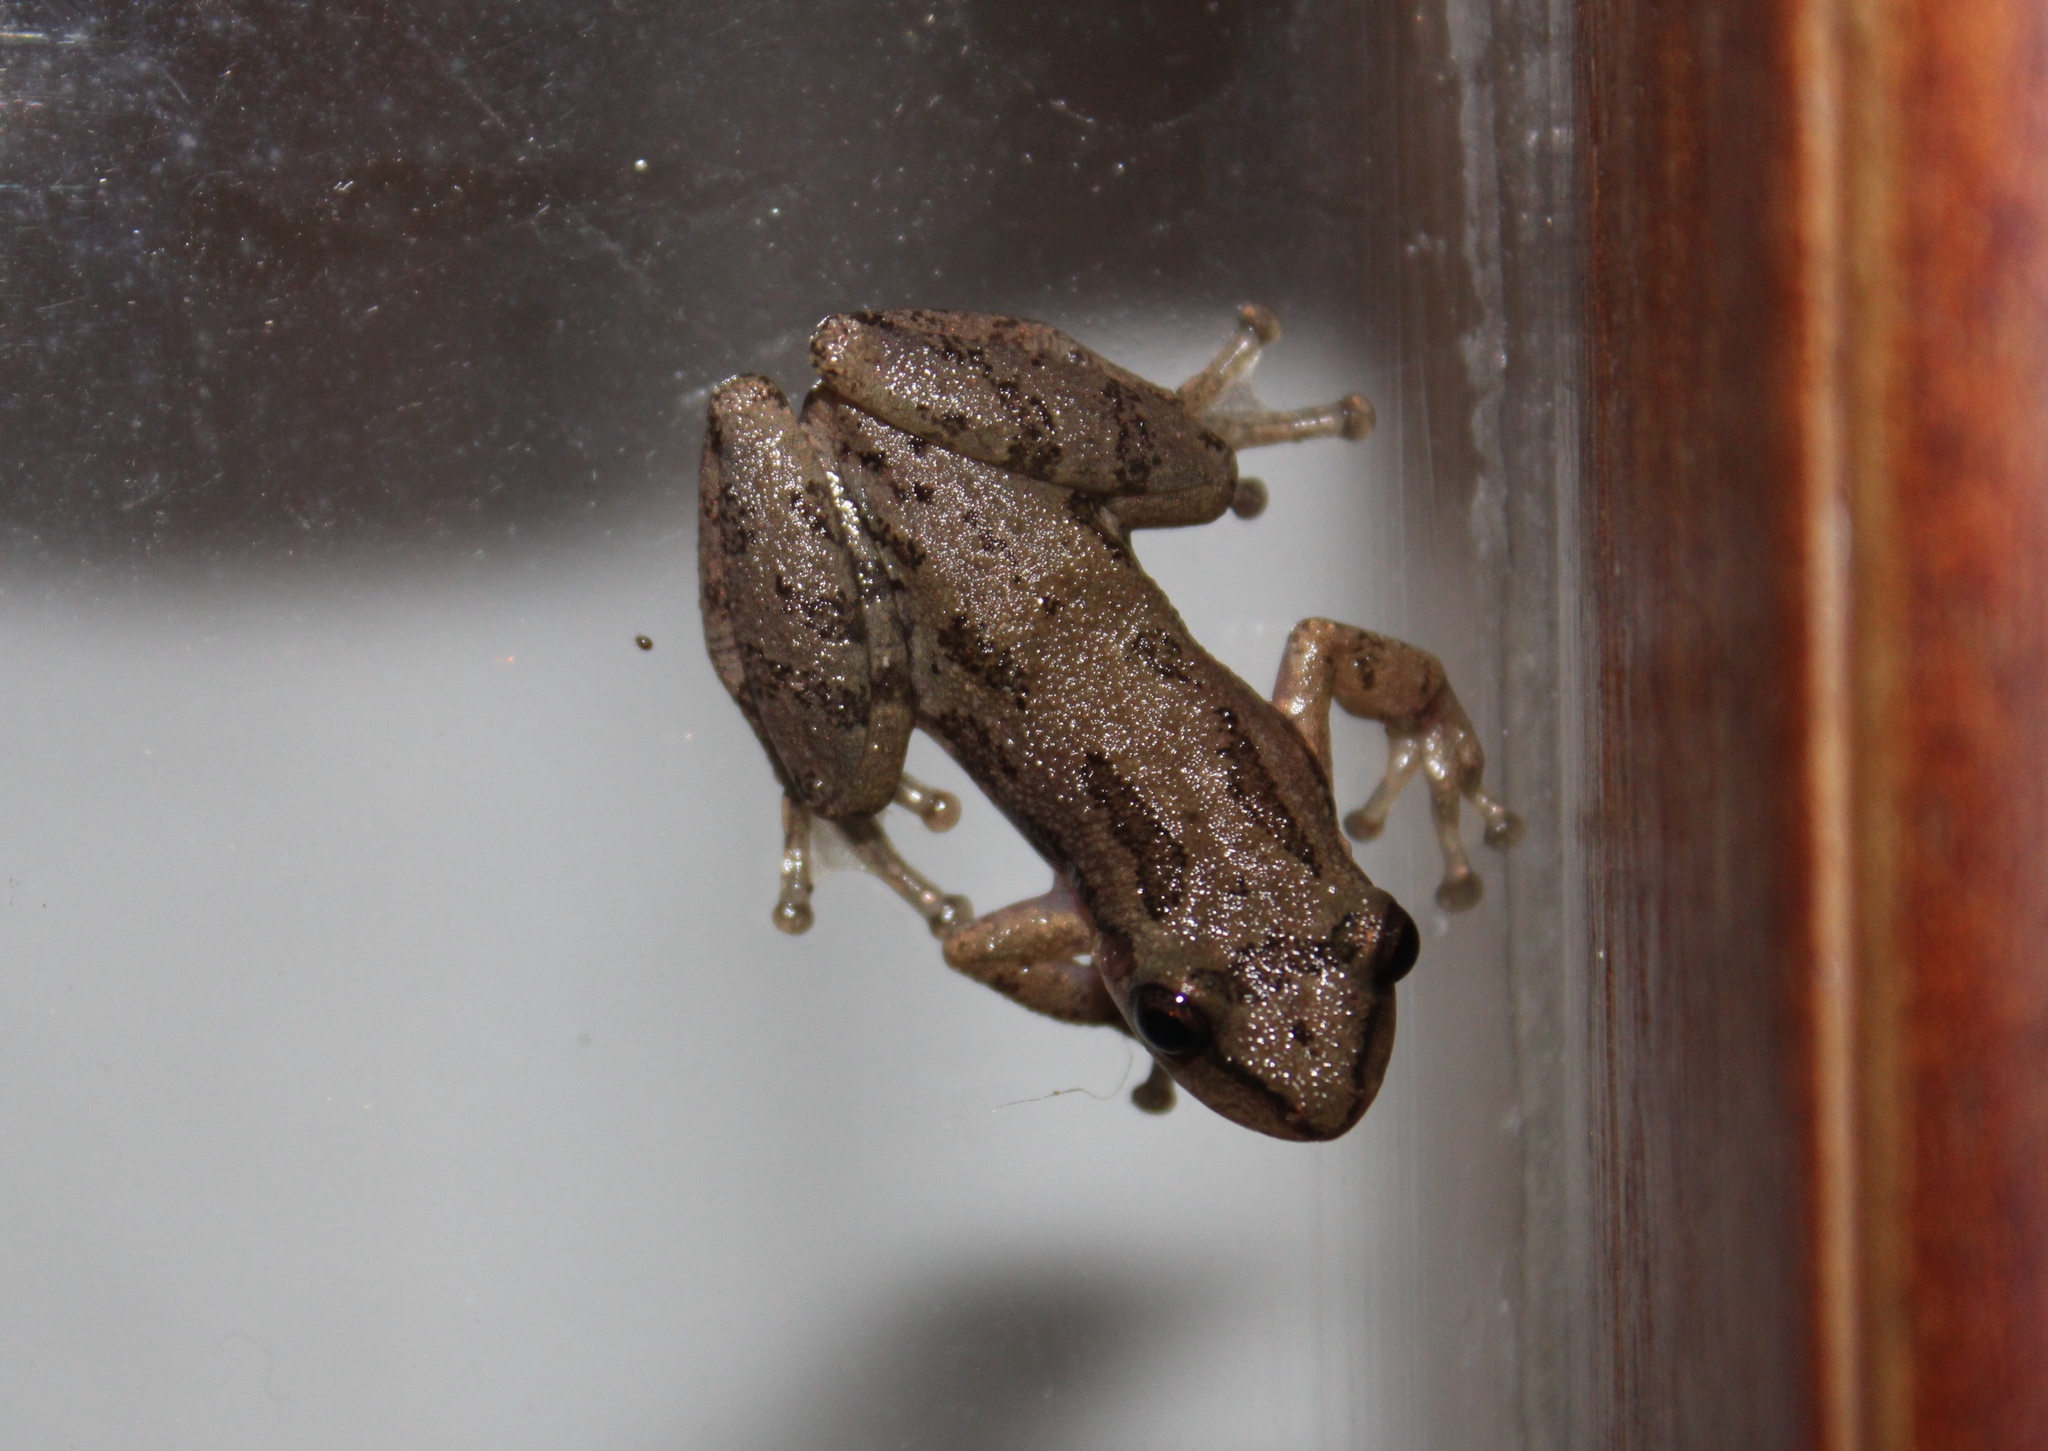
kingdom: Animalia
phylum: Chordata
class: Amphibia
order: Anura
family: Hylidae
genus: Scinax
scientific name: Scinax staufferi
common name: Stauffer's long-nosed treefrog
